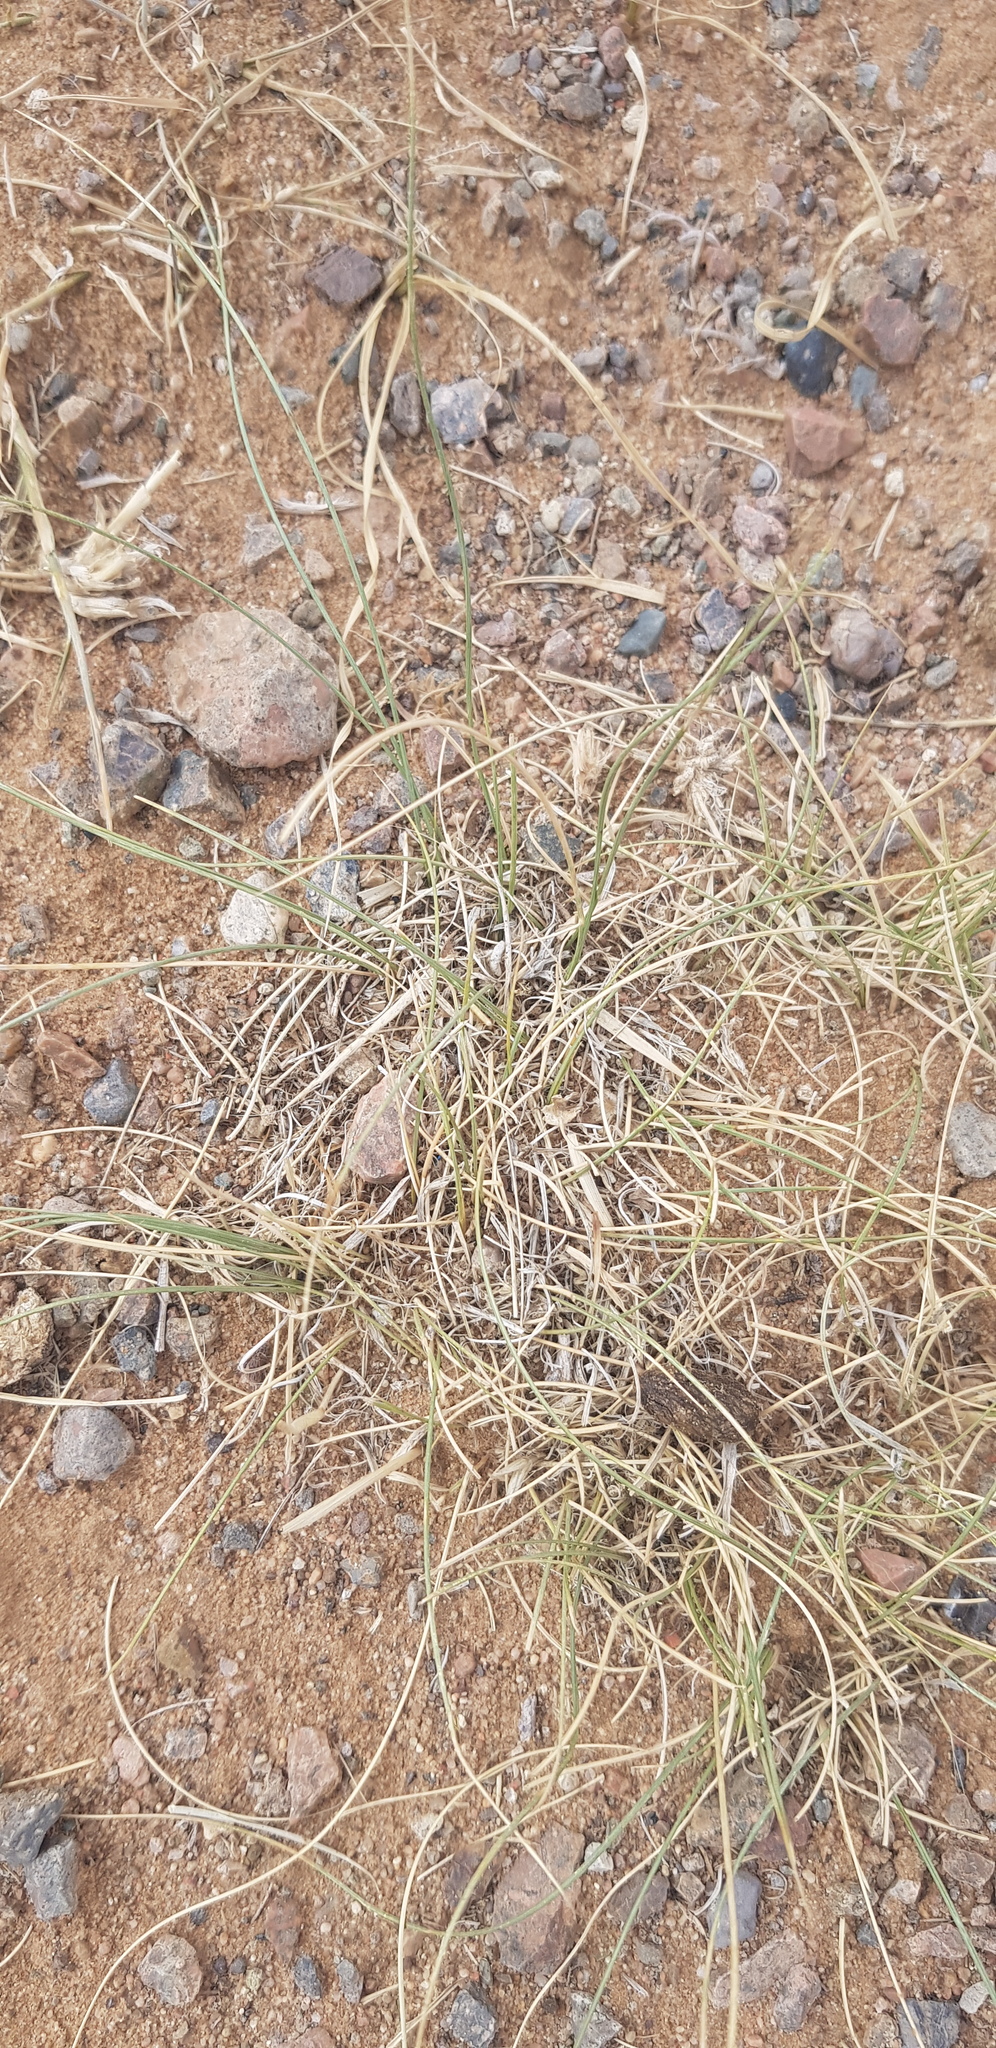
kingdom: Plantae
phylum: Tracheophyta
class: Liliopsida
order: Poales
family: Poaceae
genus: Stipa
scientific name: Stipa glareosa
